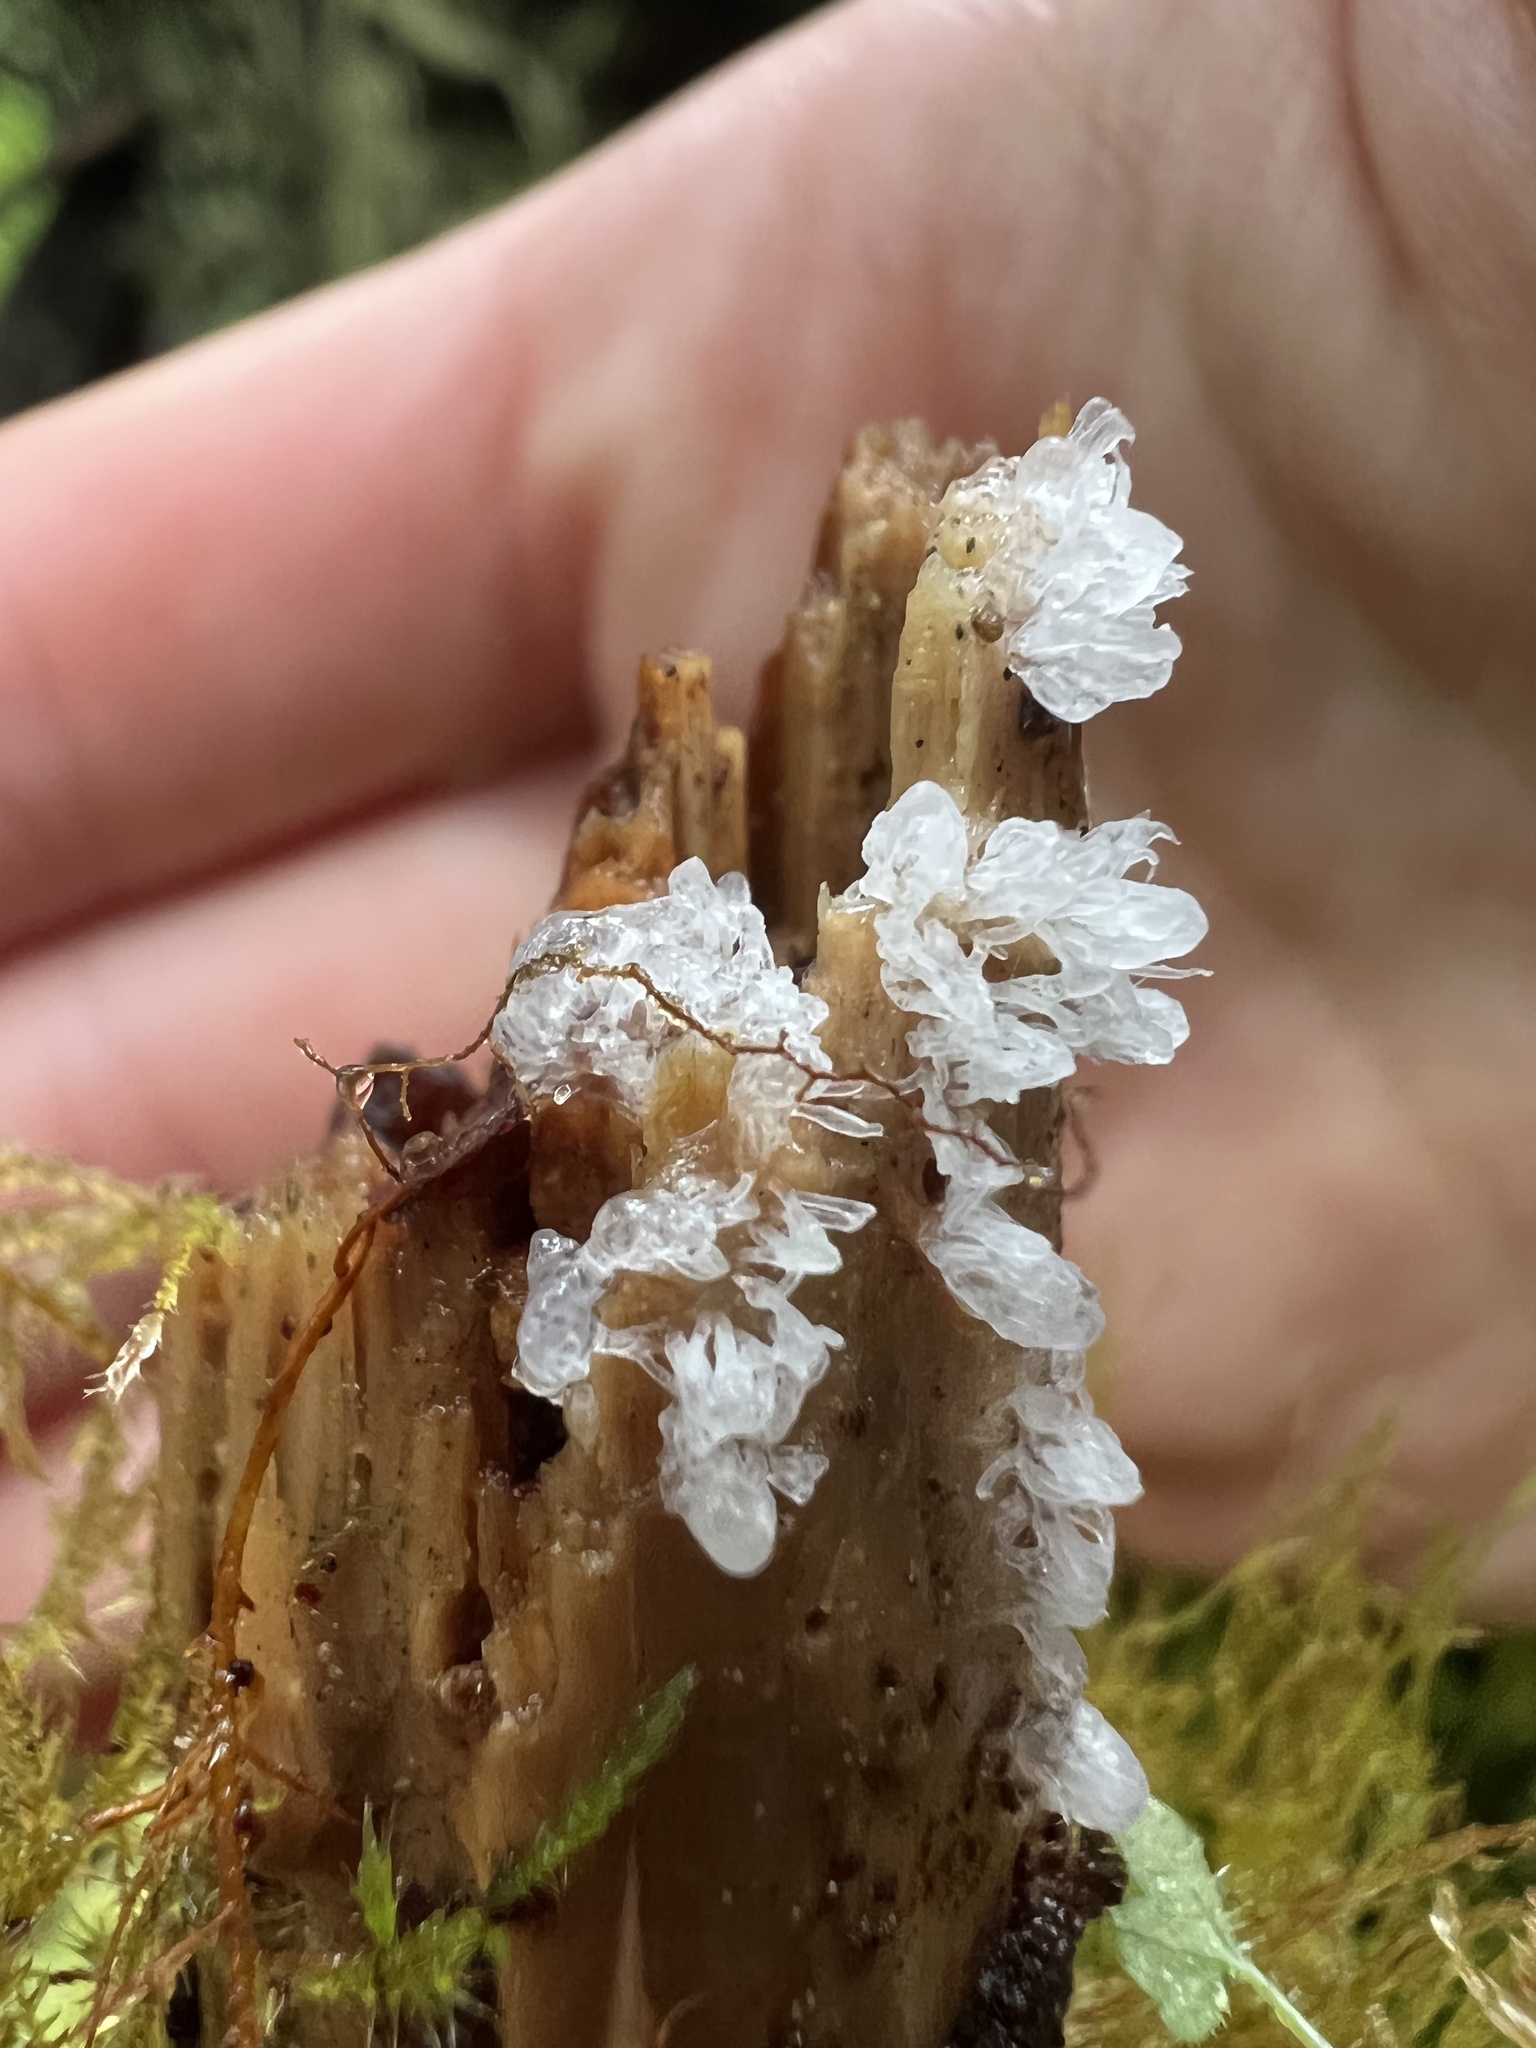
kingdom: Protozoa
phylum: Mycetozoa
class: Protosteliomycetes
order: Ceratiomyxales
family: Ceratiomyxaceae
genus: Ceratiomyxa
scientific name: Ceratiomyxa fruticulosa
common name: Honeycomb coral slime mold
